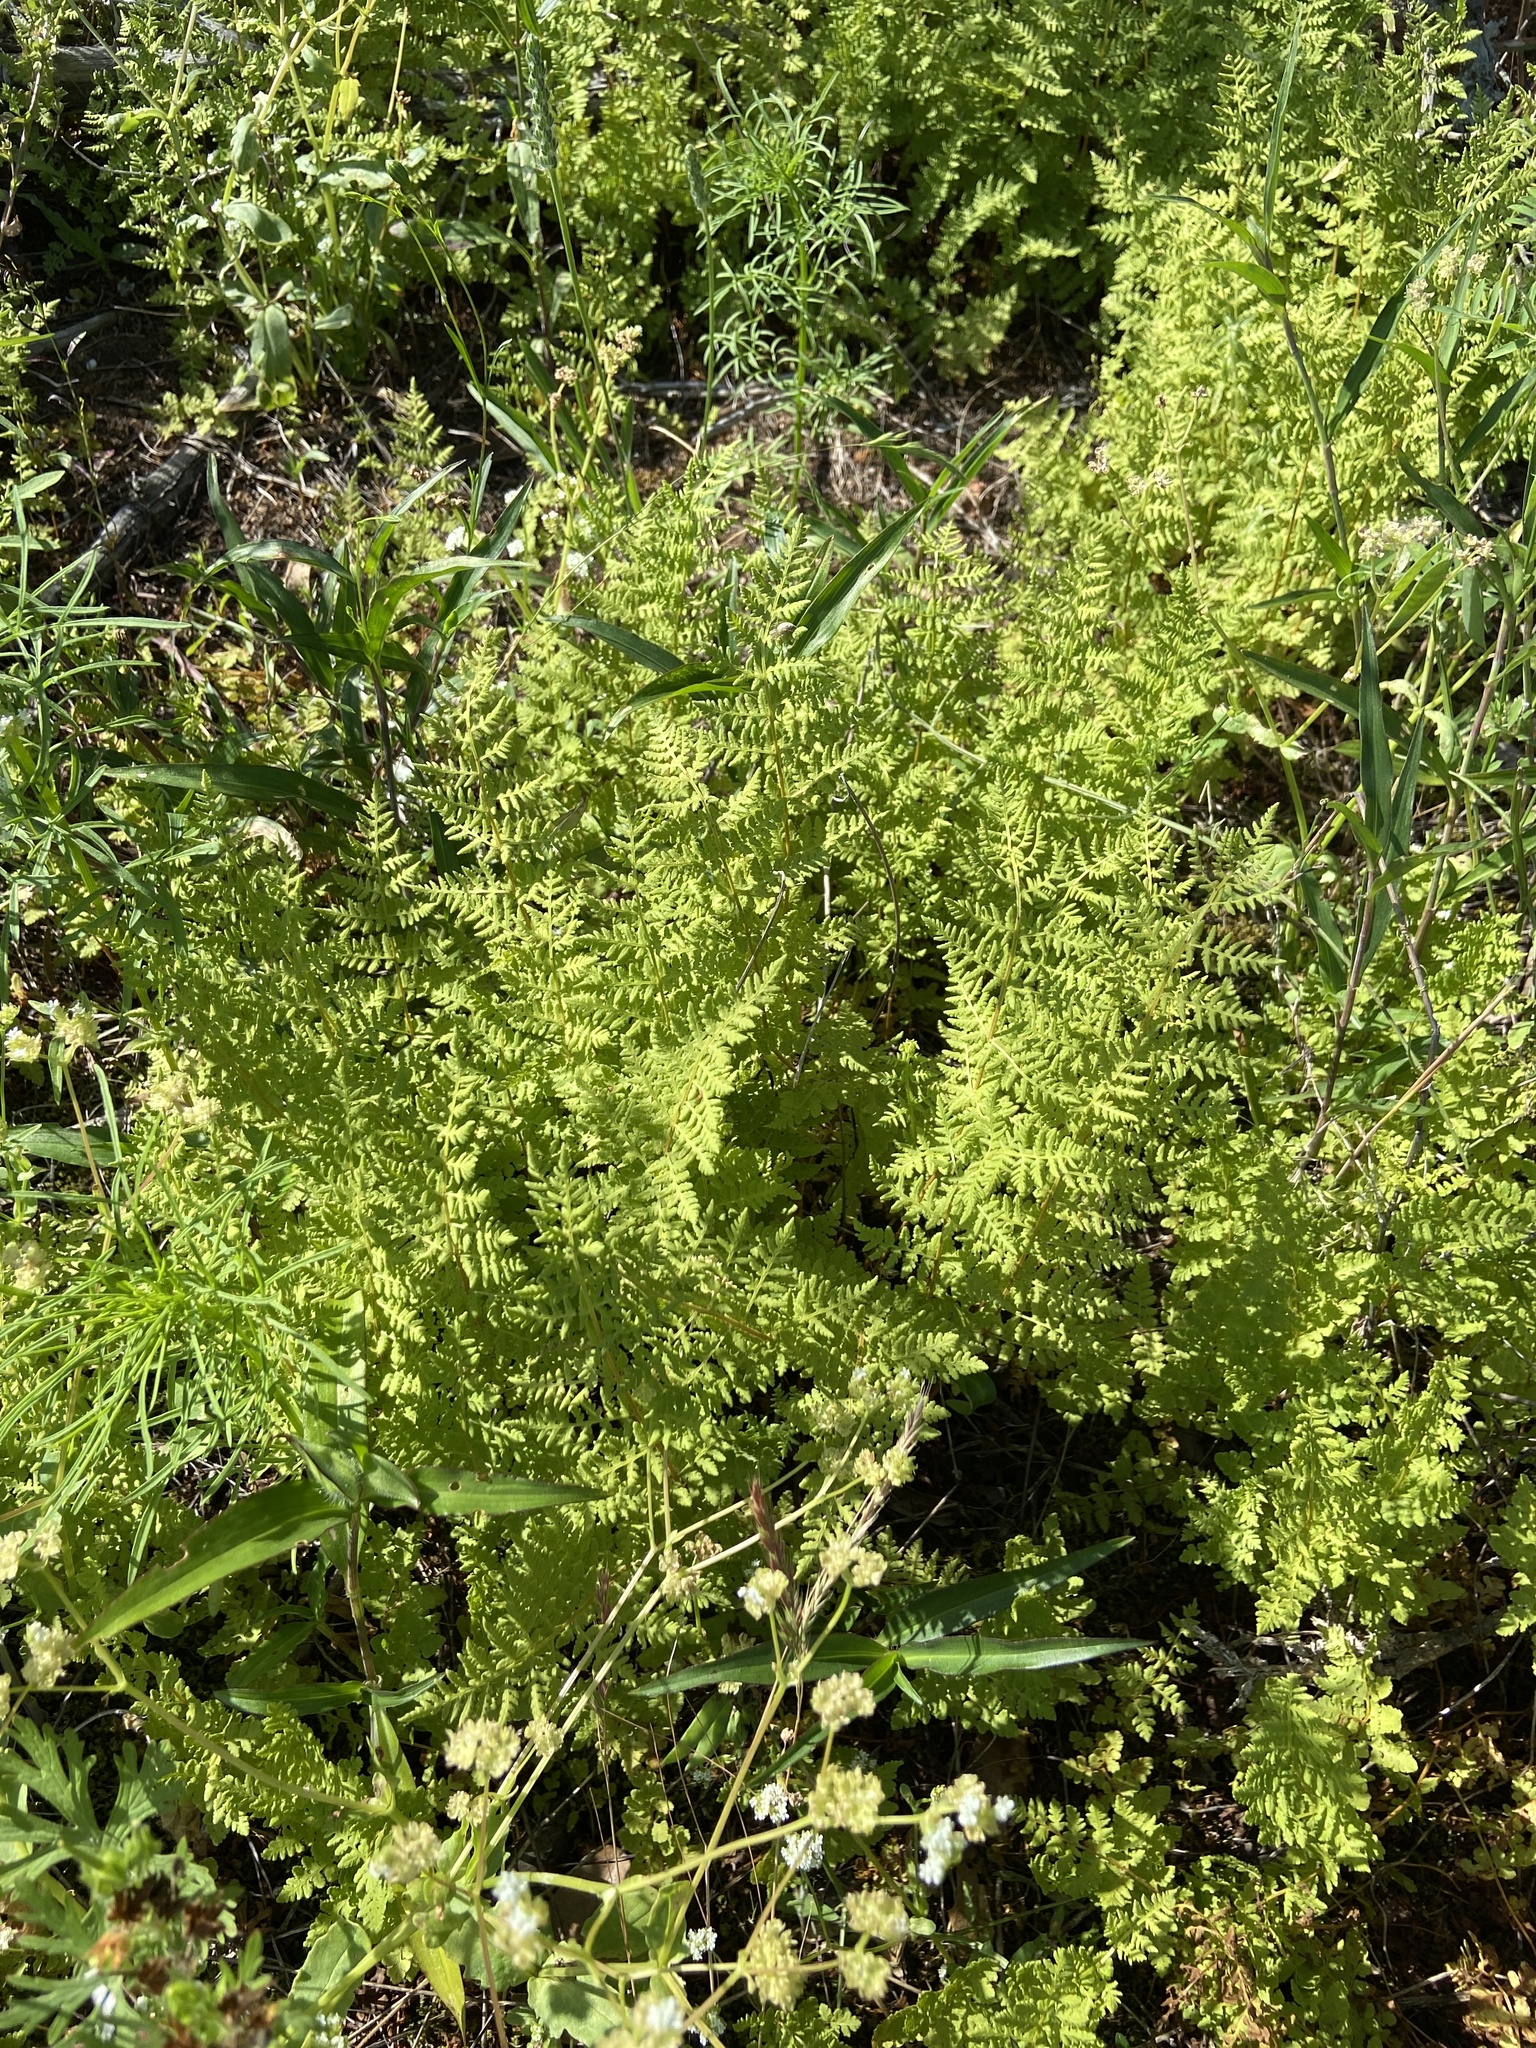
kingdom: Plantae
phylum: Tracheophyta
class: Polypodiopsida
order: Polypodiales
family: Woodsiaceae
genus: Physematium
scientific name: Physematium obtusum
